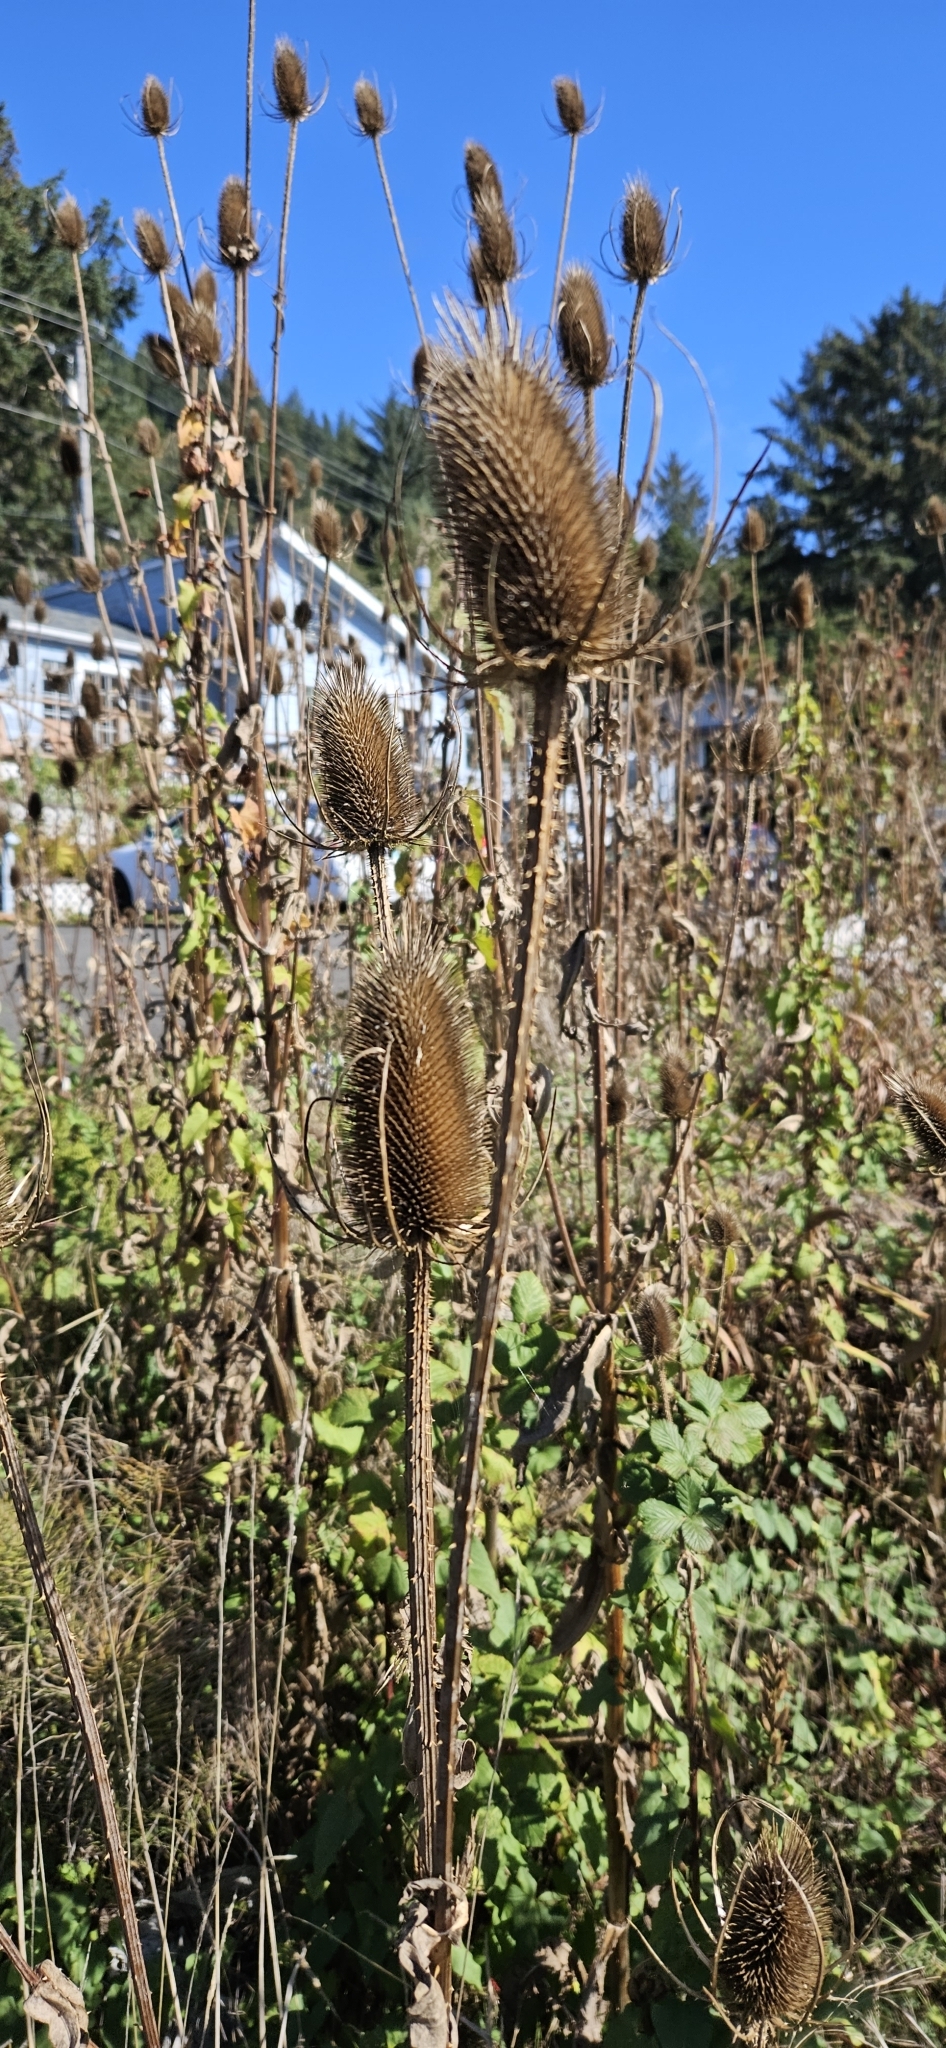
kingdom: Plantae
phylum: Tracheophyta
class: Magnoliopsida
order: Dipsacales
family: Caprifoliaceae
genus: Dipsacus
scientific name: Dipsacus fullonum
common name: Teasel
